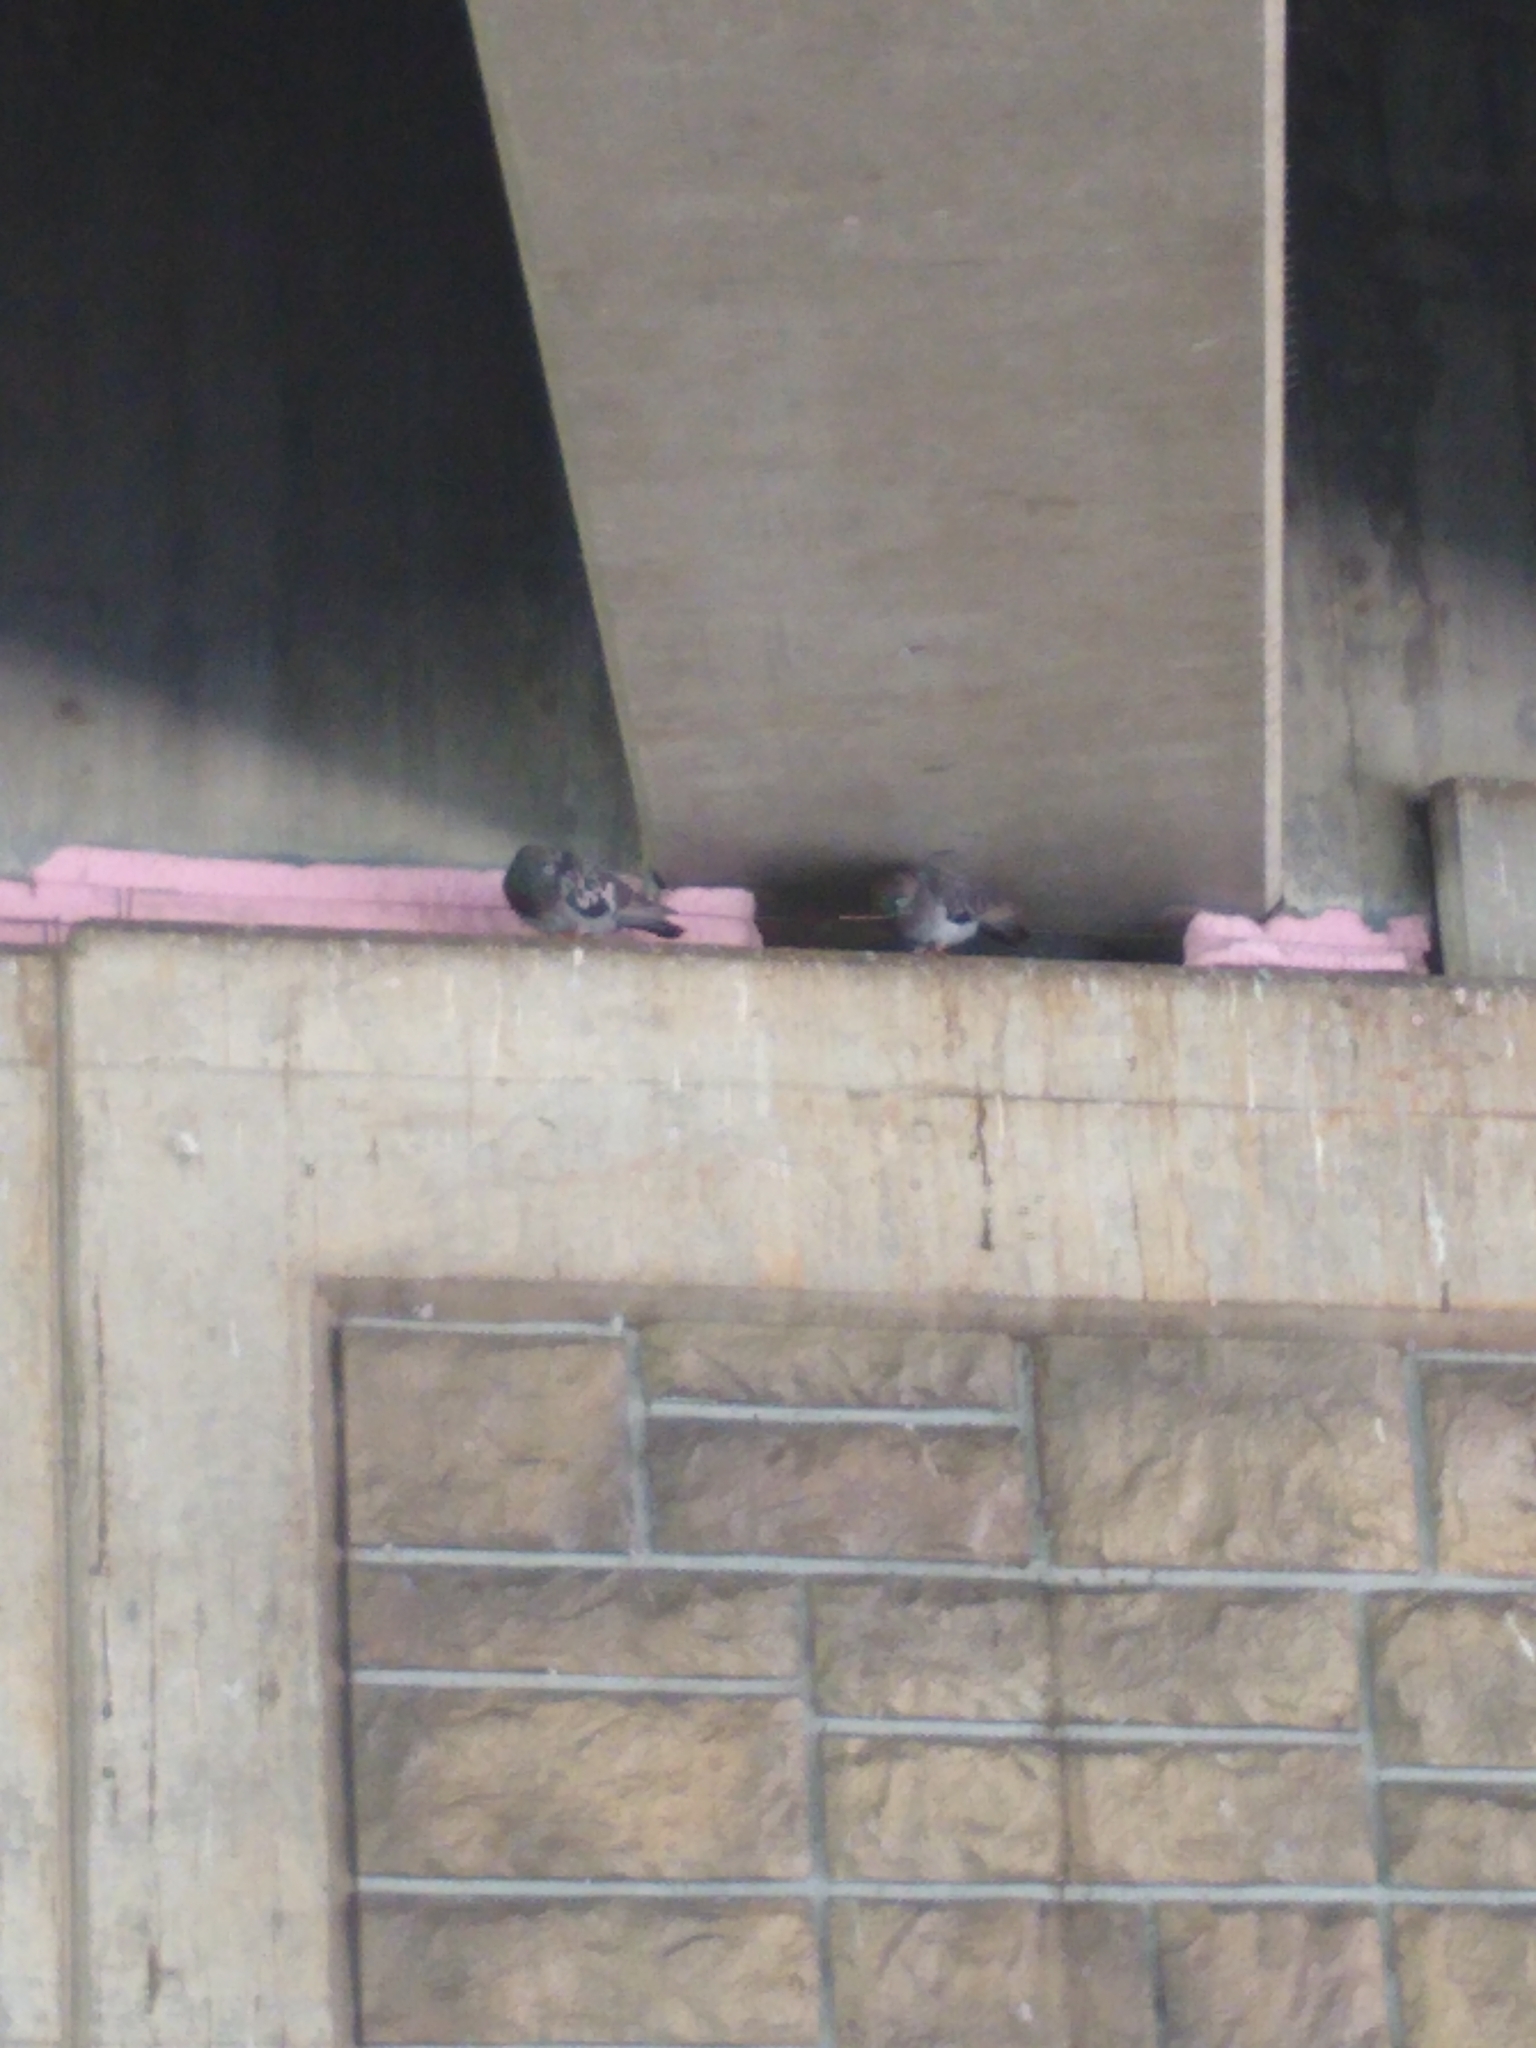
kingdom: Animalia
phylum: Chordata
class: Aves
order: Columbiformes
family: Columbidae
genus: Columba
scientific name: Columba livia
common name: Rock pigeon
